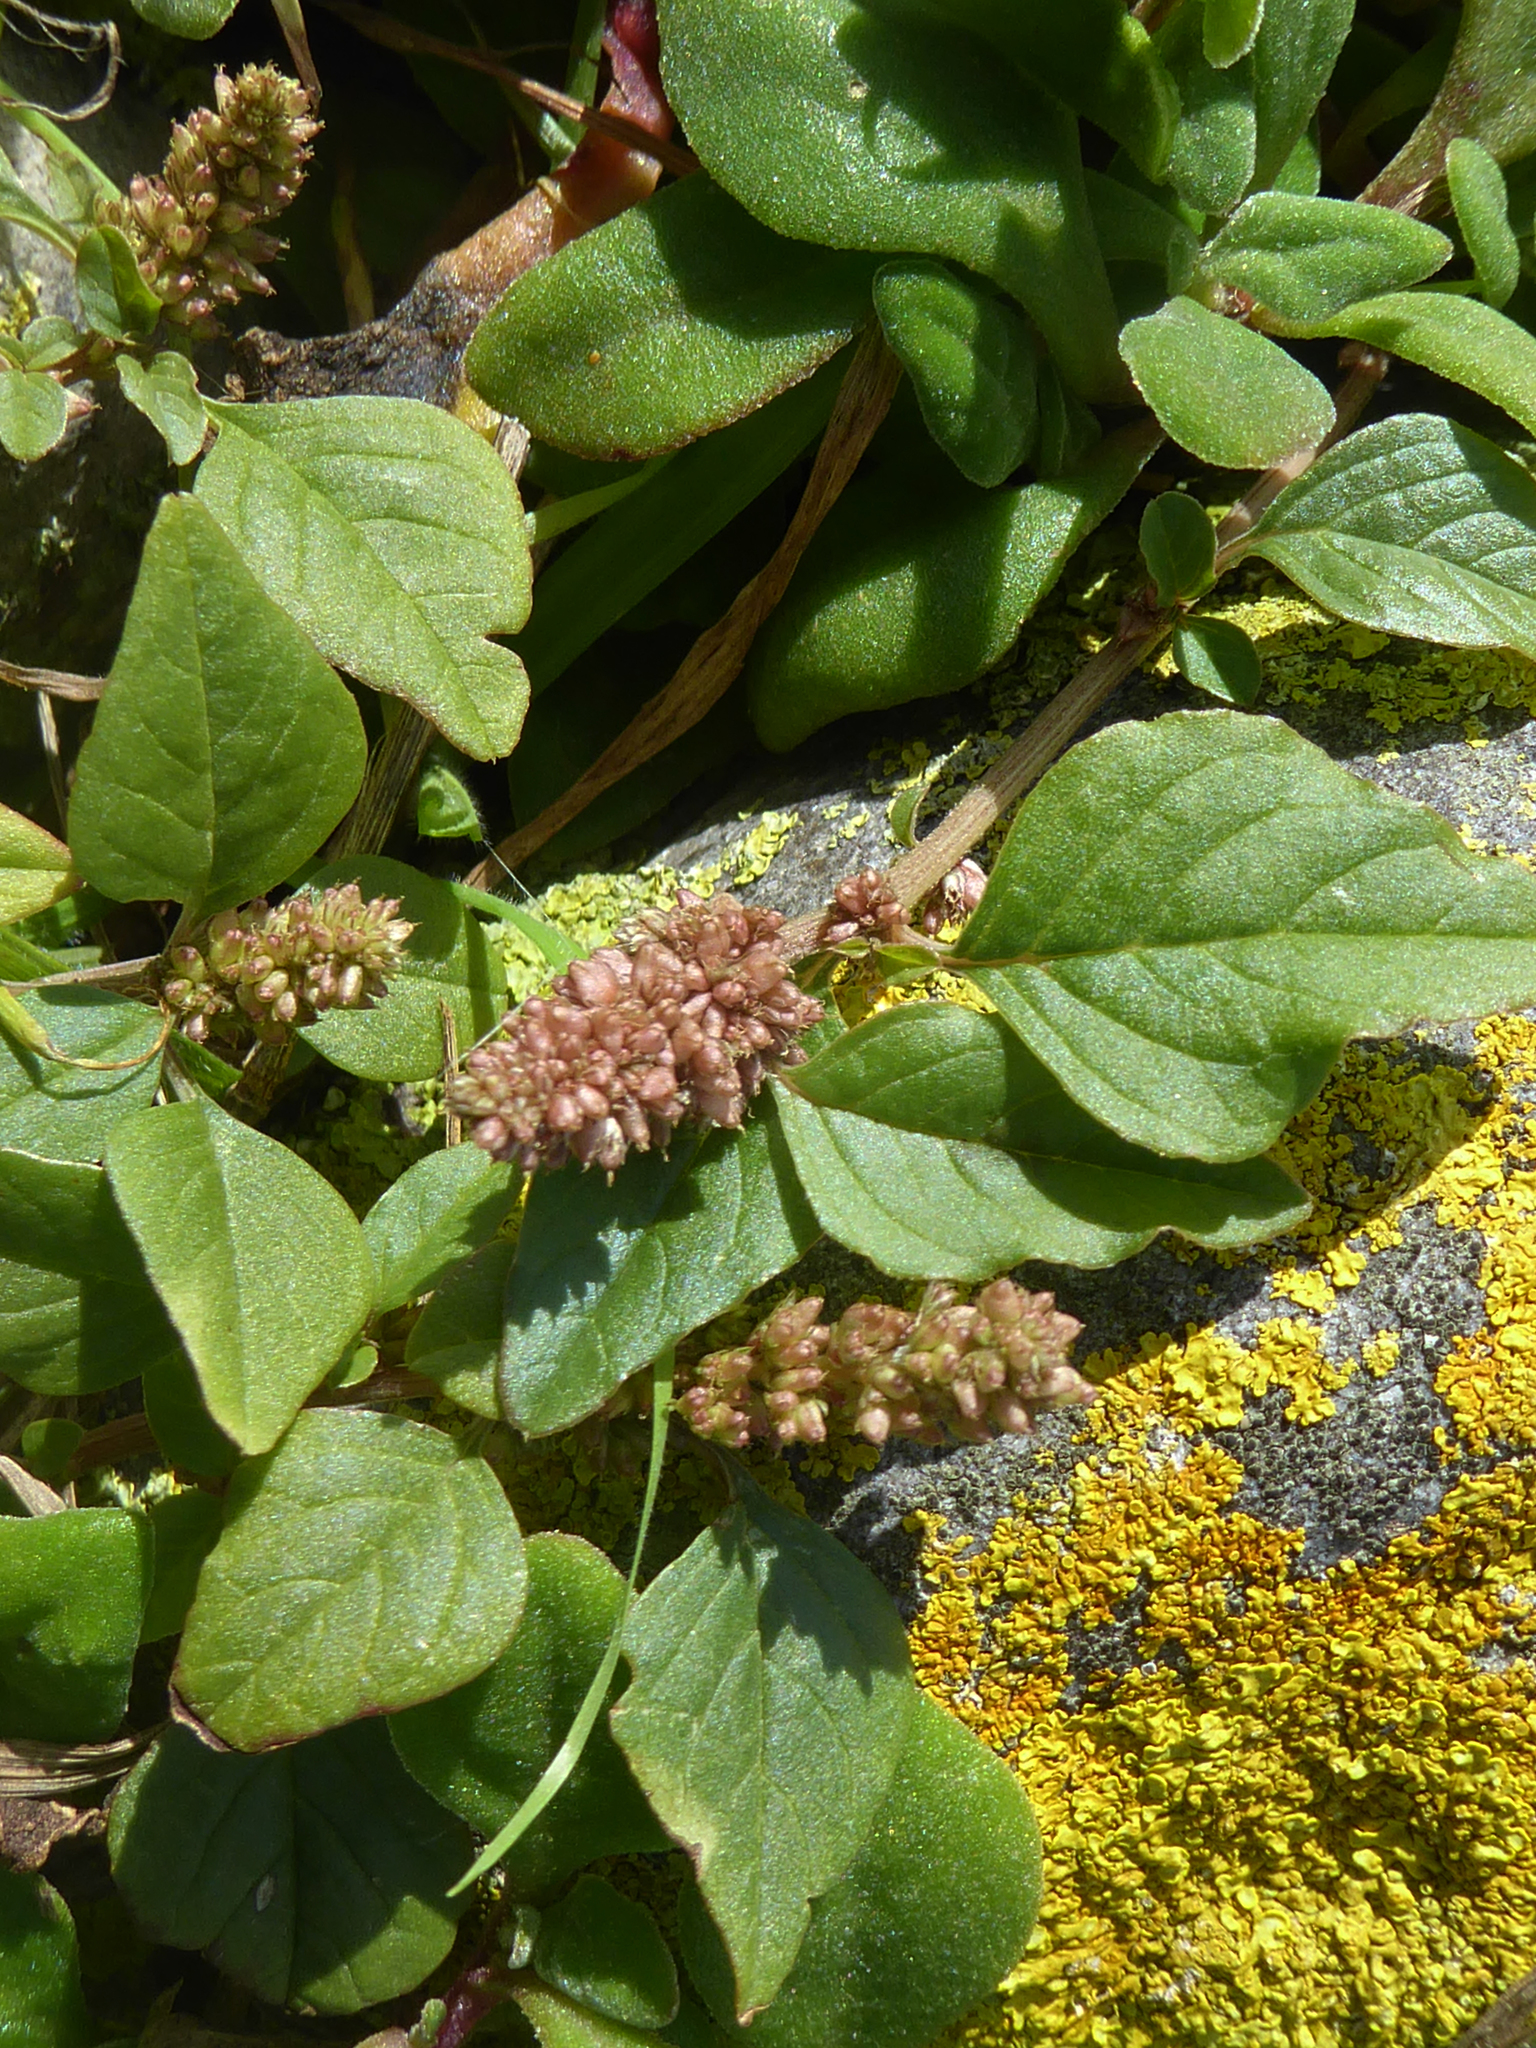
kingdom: Plantae
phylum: Tracheophyta
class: Magnoliopsida
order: Caryophyllales
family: Amaranthaceae
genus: Amaranthus
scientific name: Amaranthus deflexus
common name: Perennial pigweed
